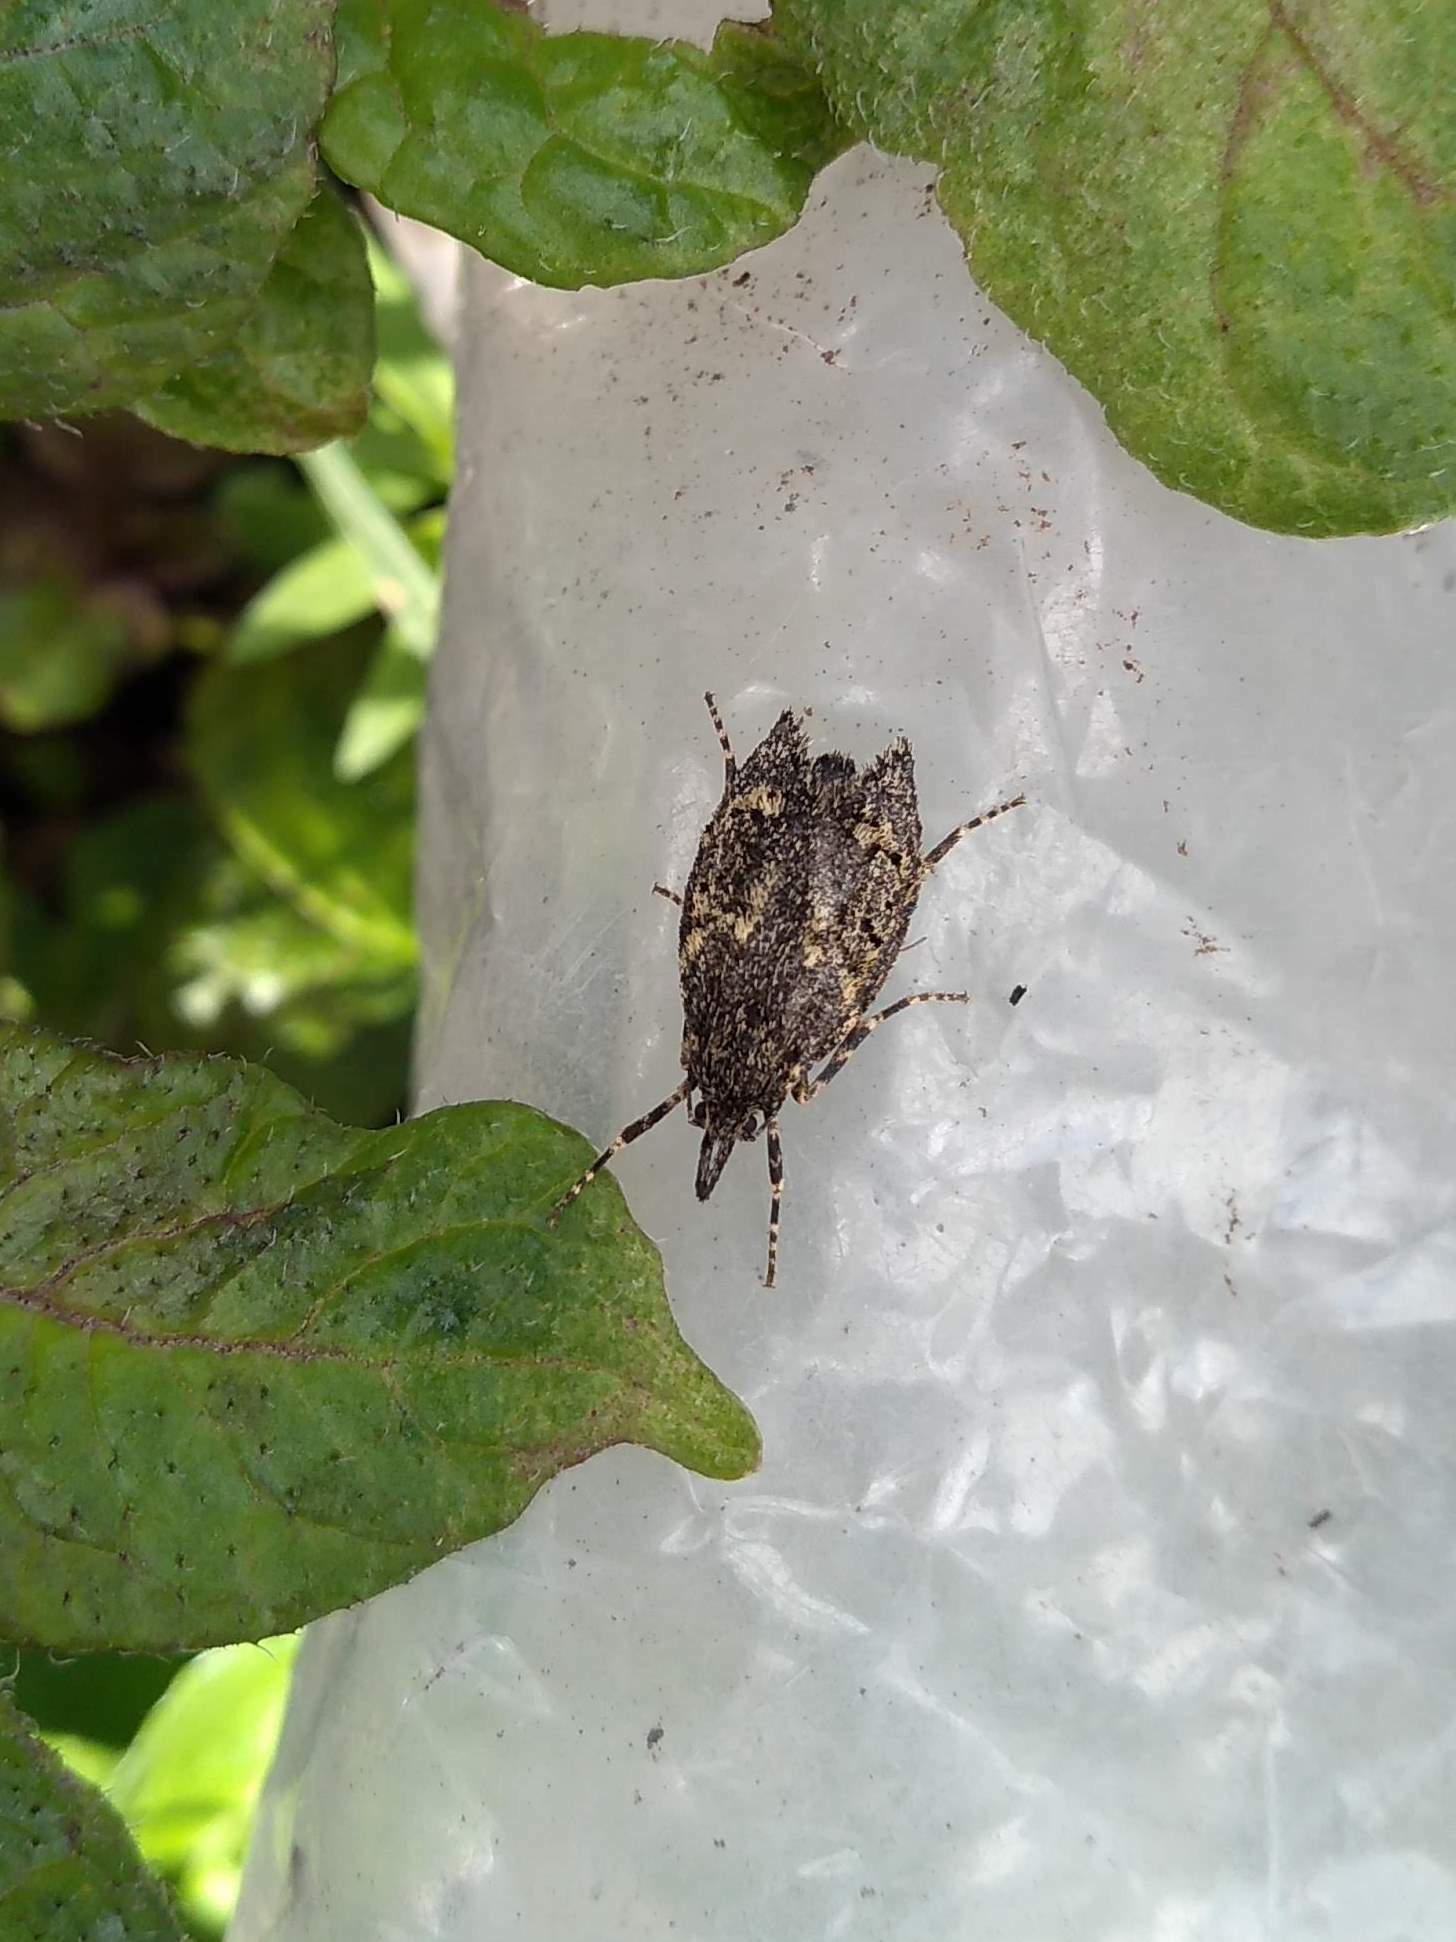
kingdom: Animalia
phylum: Arthropoda
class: Insecta
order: Lepidoptera
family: Lypusidae
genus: Diurnea
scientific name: Diurnea fagella
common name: March tubic
